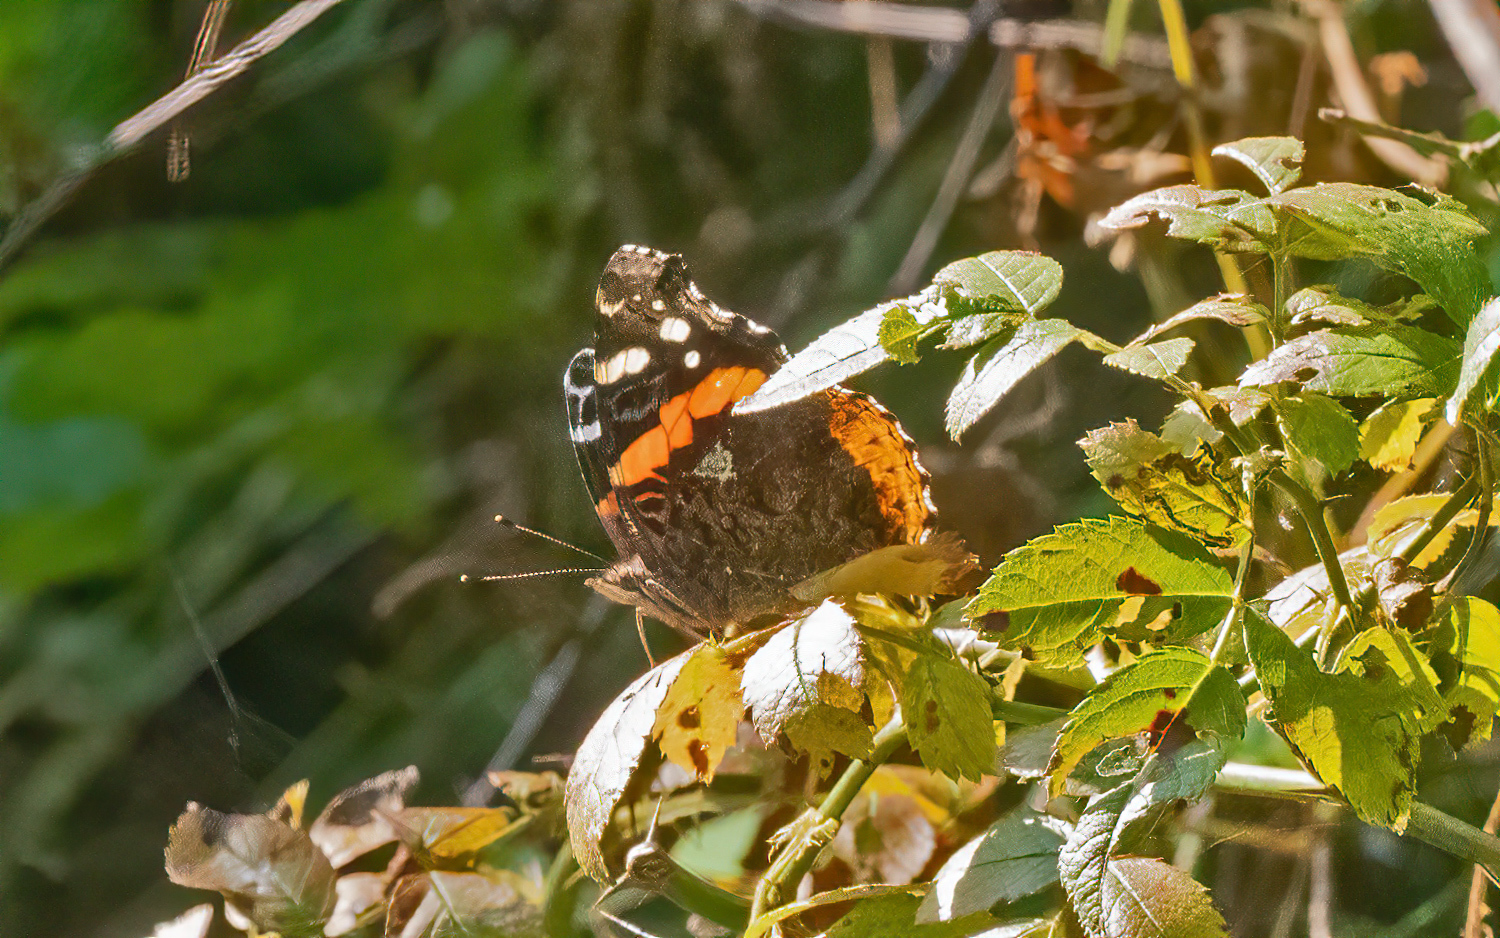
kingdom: Animalia
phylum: Arthropoda
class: Insecta
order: Lepidoptera
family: Nymphalidae
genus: Vanessa
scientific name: Vanessa atalanta
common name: Red admiral
